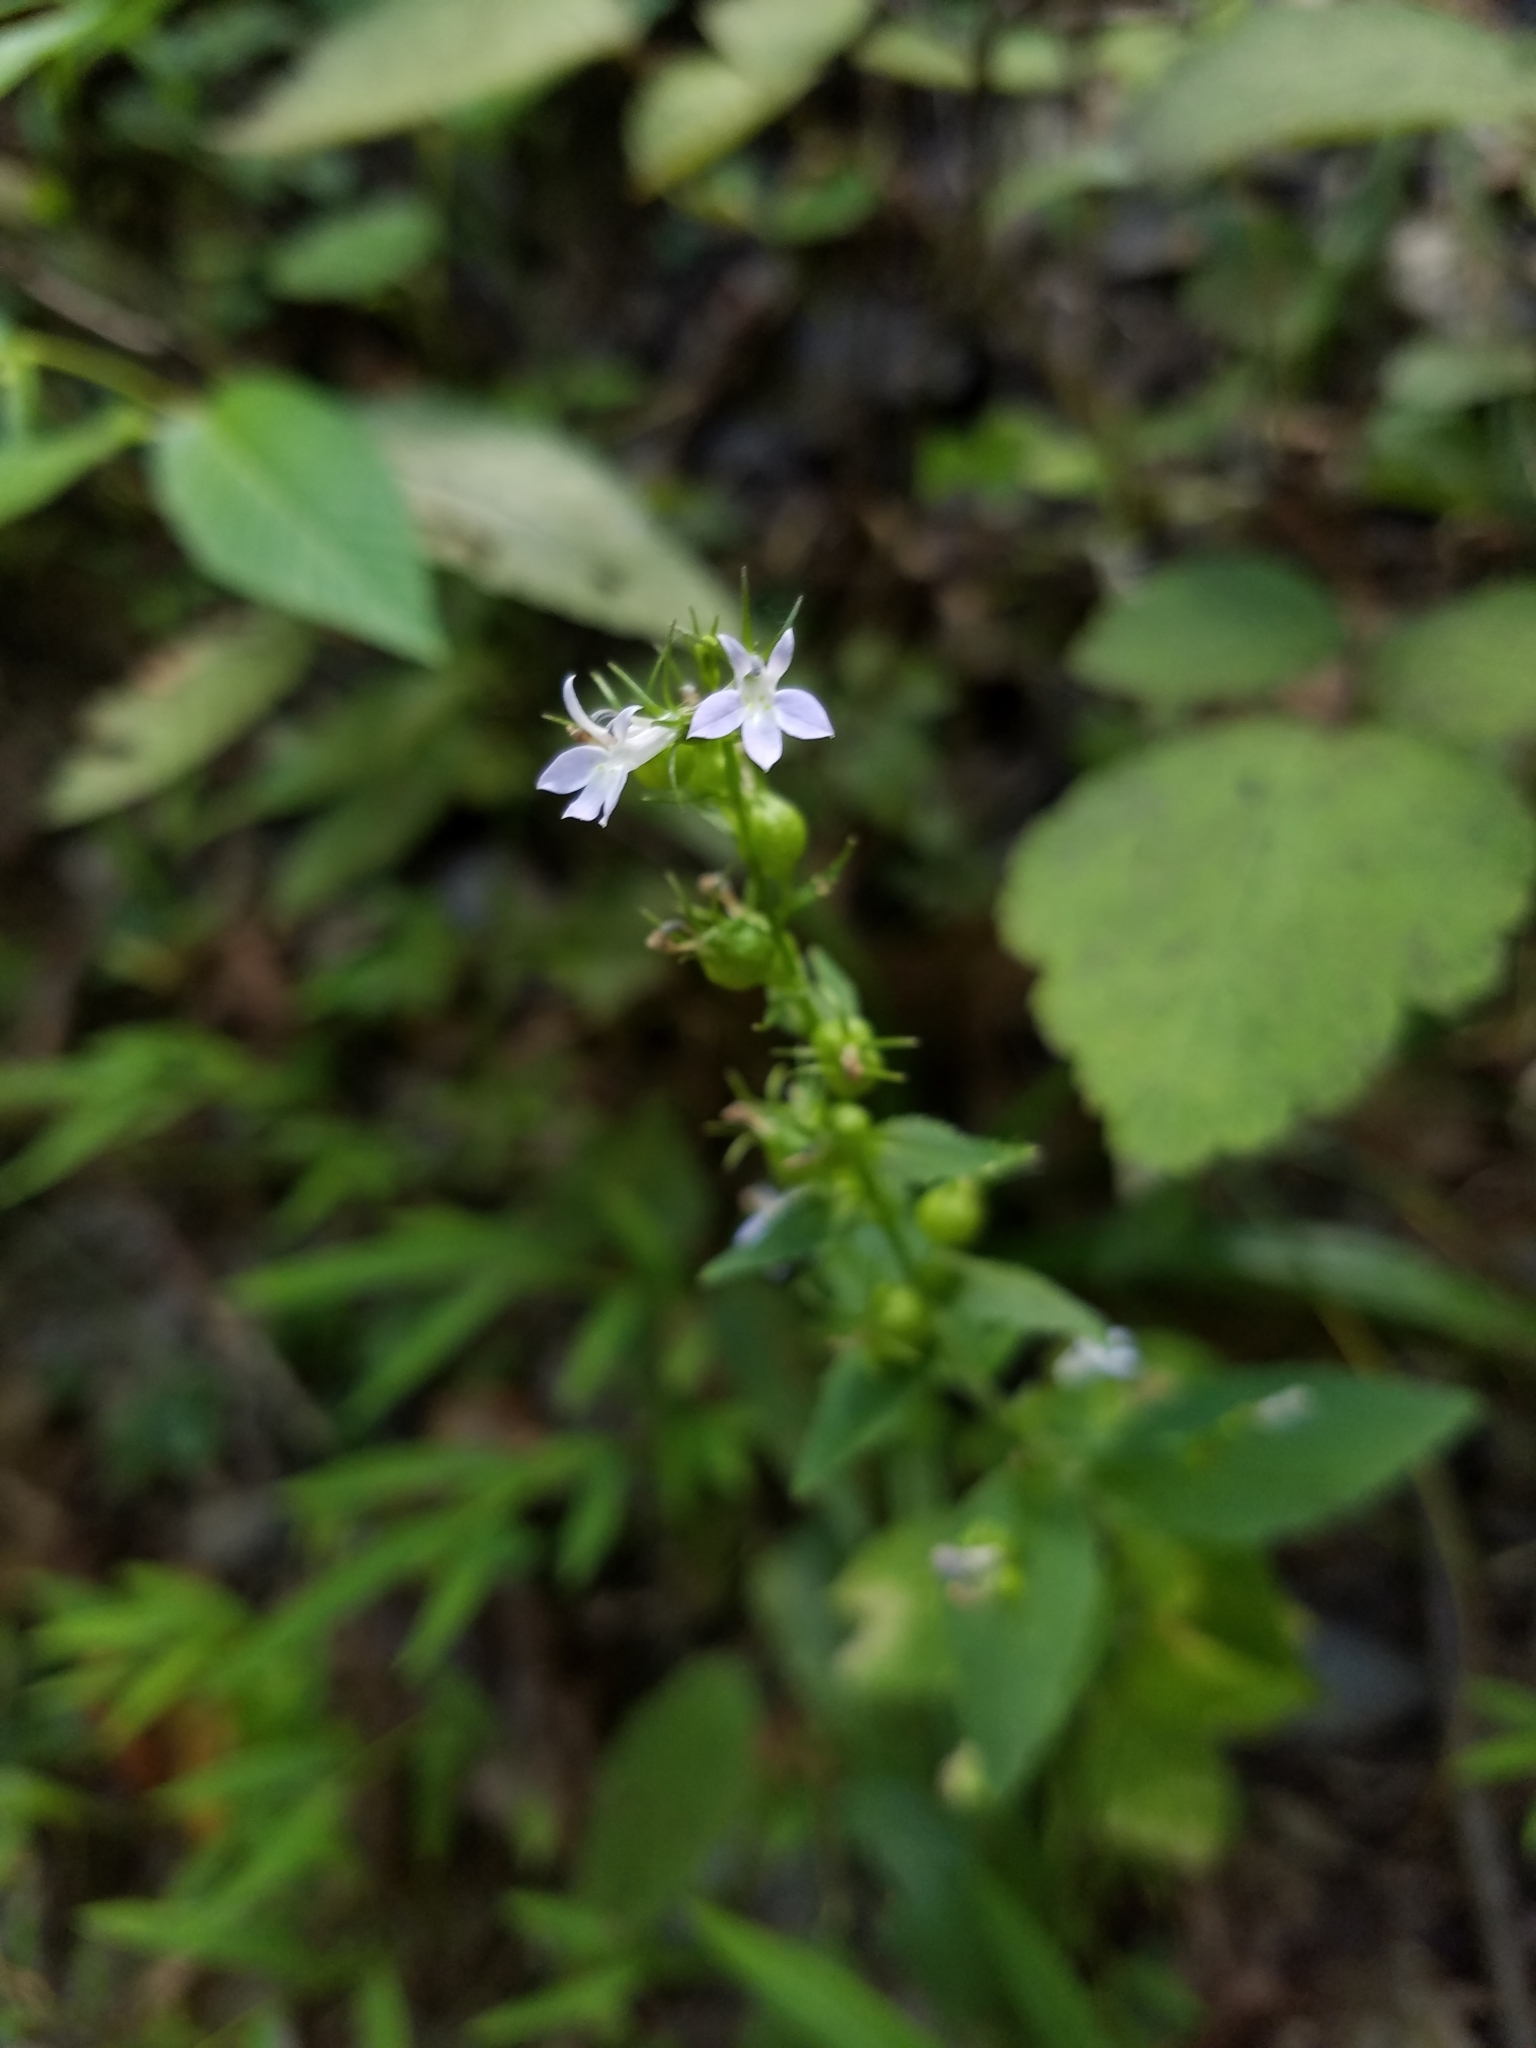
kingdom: Plantae
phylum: Tracheophyta
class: Magnoliopsida
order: Asterales
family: Campanulaceae
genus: Lobelia
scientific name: Lobelia inflata
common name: Indian tobacco
